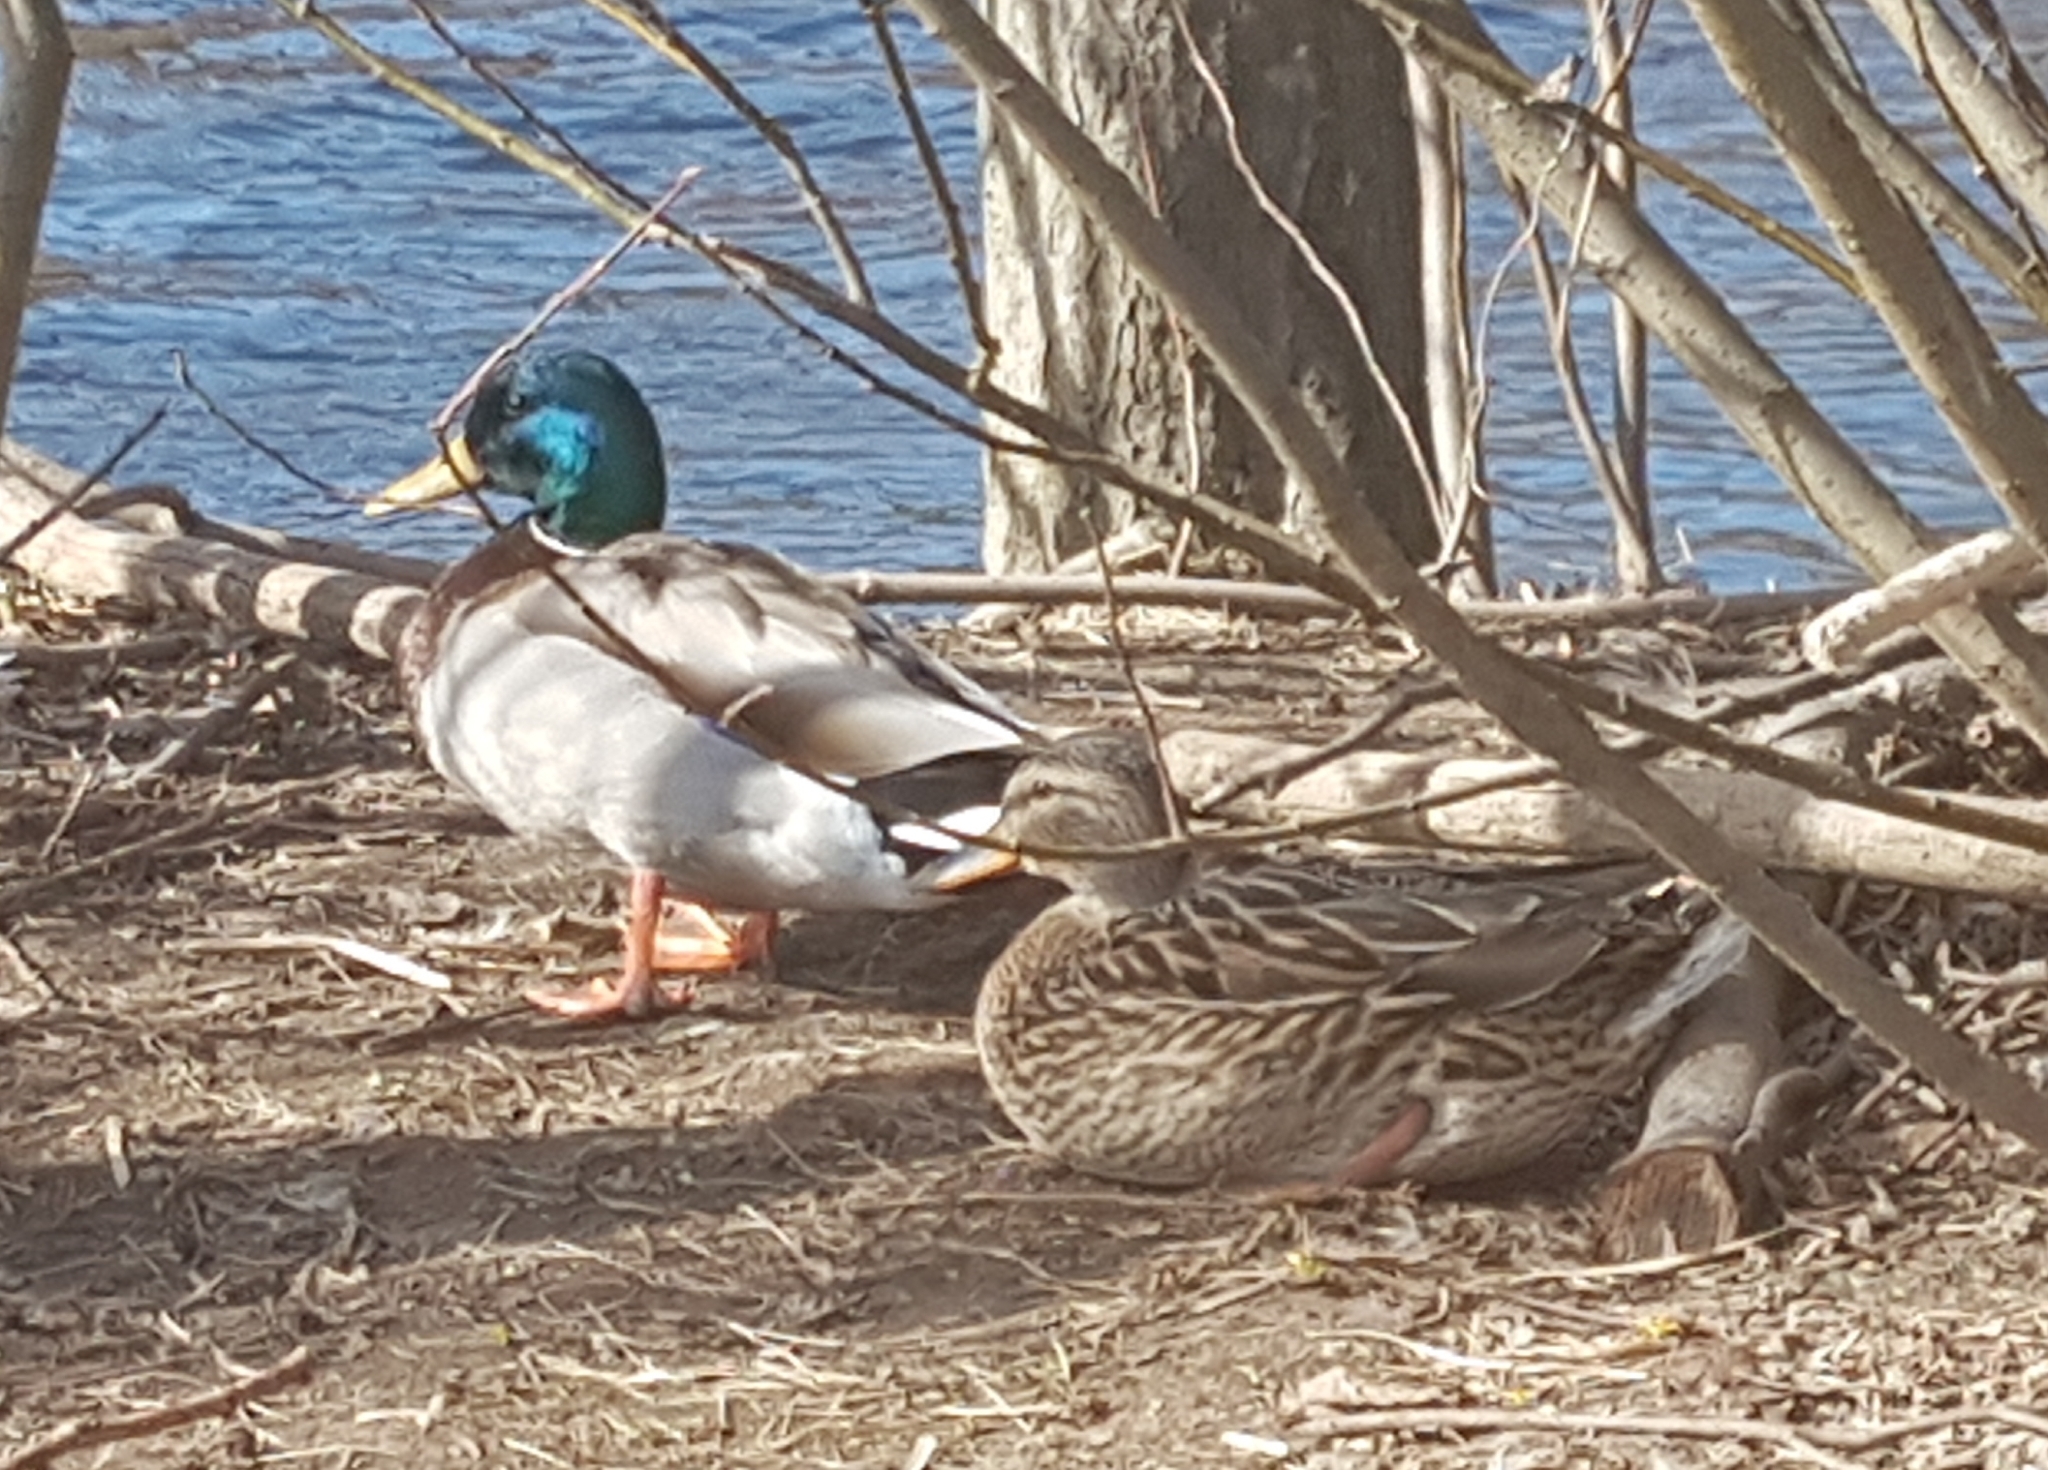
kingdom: Animalia
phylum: Chordata
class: Aves
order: Anseriformes
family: Anatidae
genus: Anas
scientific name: Anas platyrhynchos
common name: Mallard
